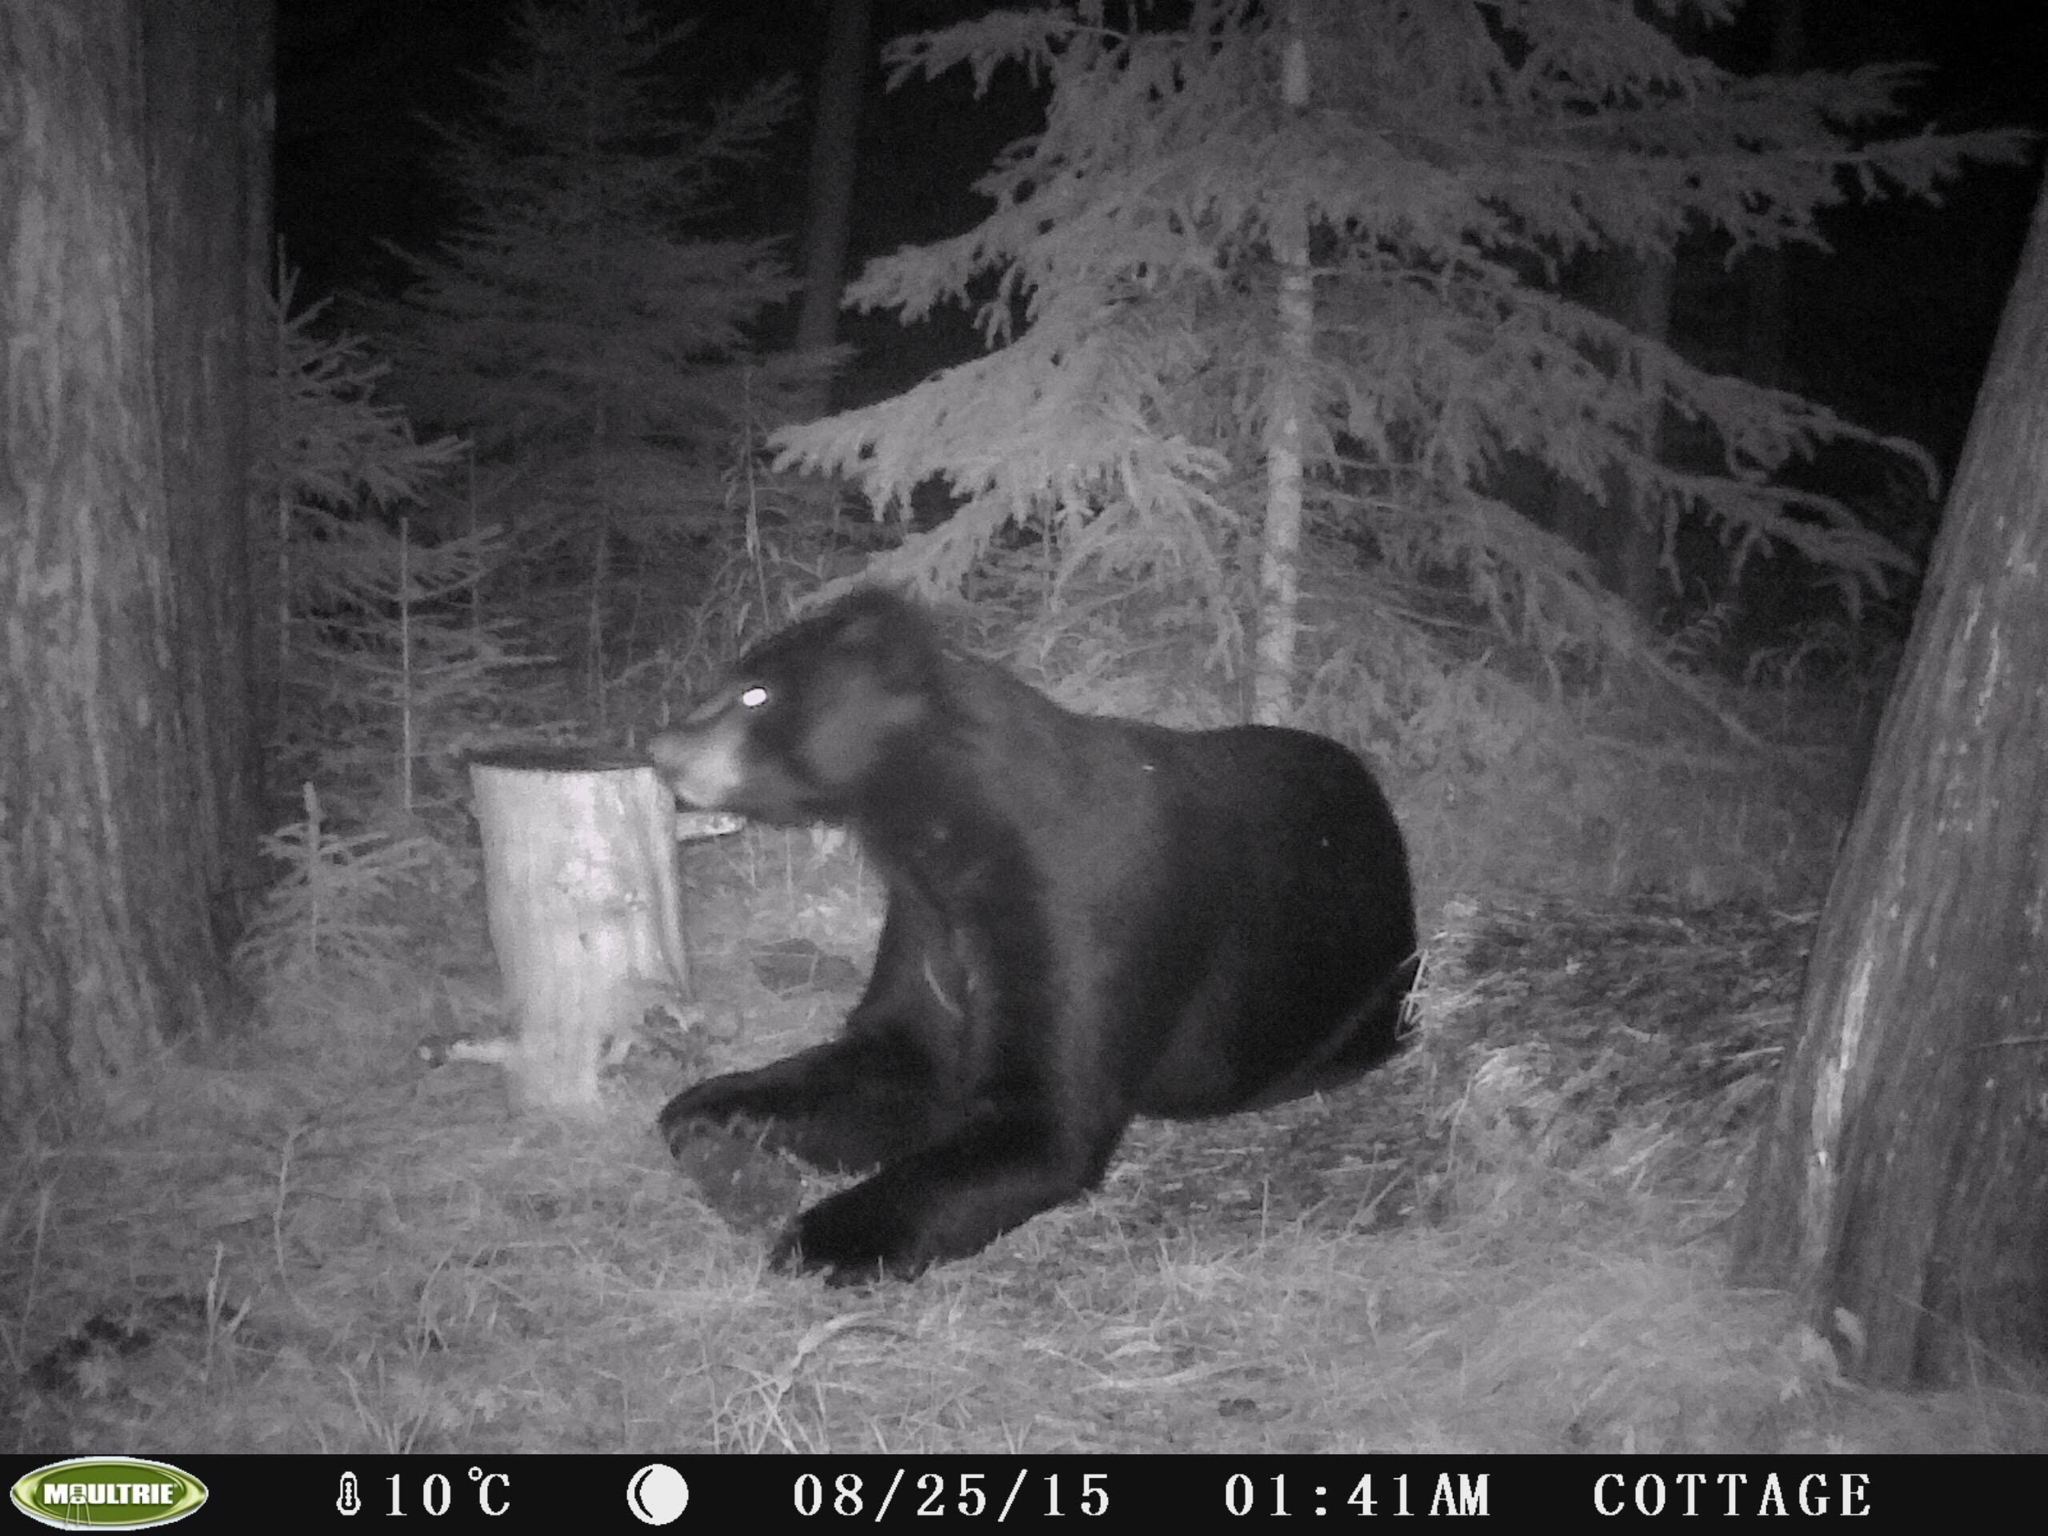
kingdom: Animalia
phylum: Chordata
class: Mammalia
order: Carnivora
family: Ursidae
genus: Ursus
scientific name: Ursus americanus
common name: American black bear
